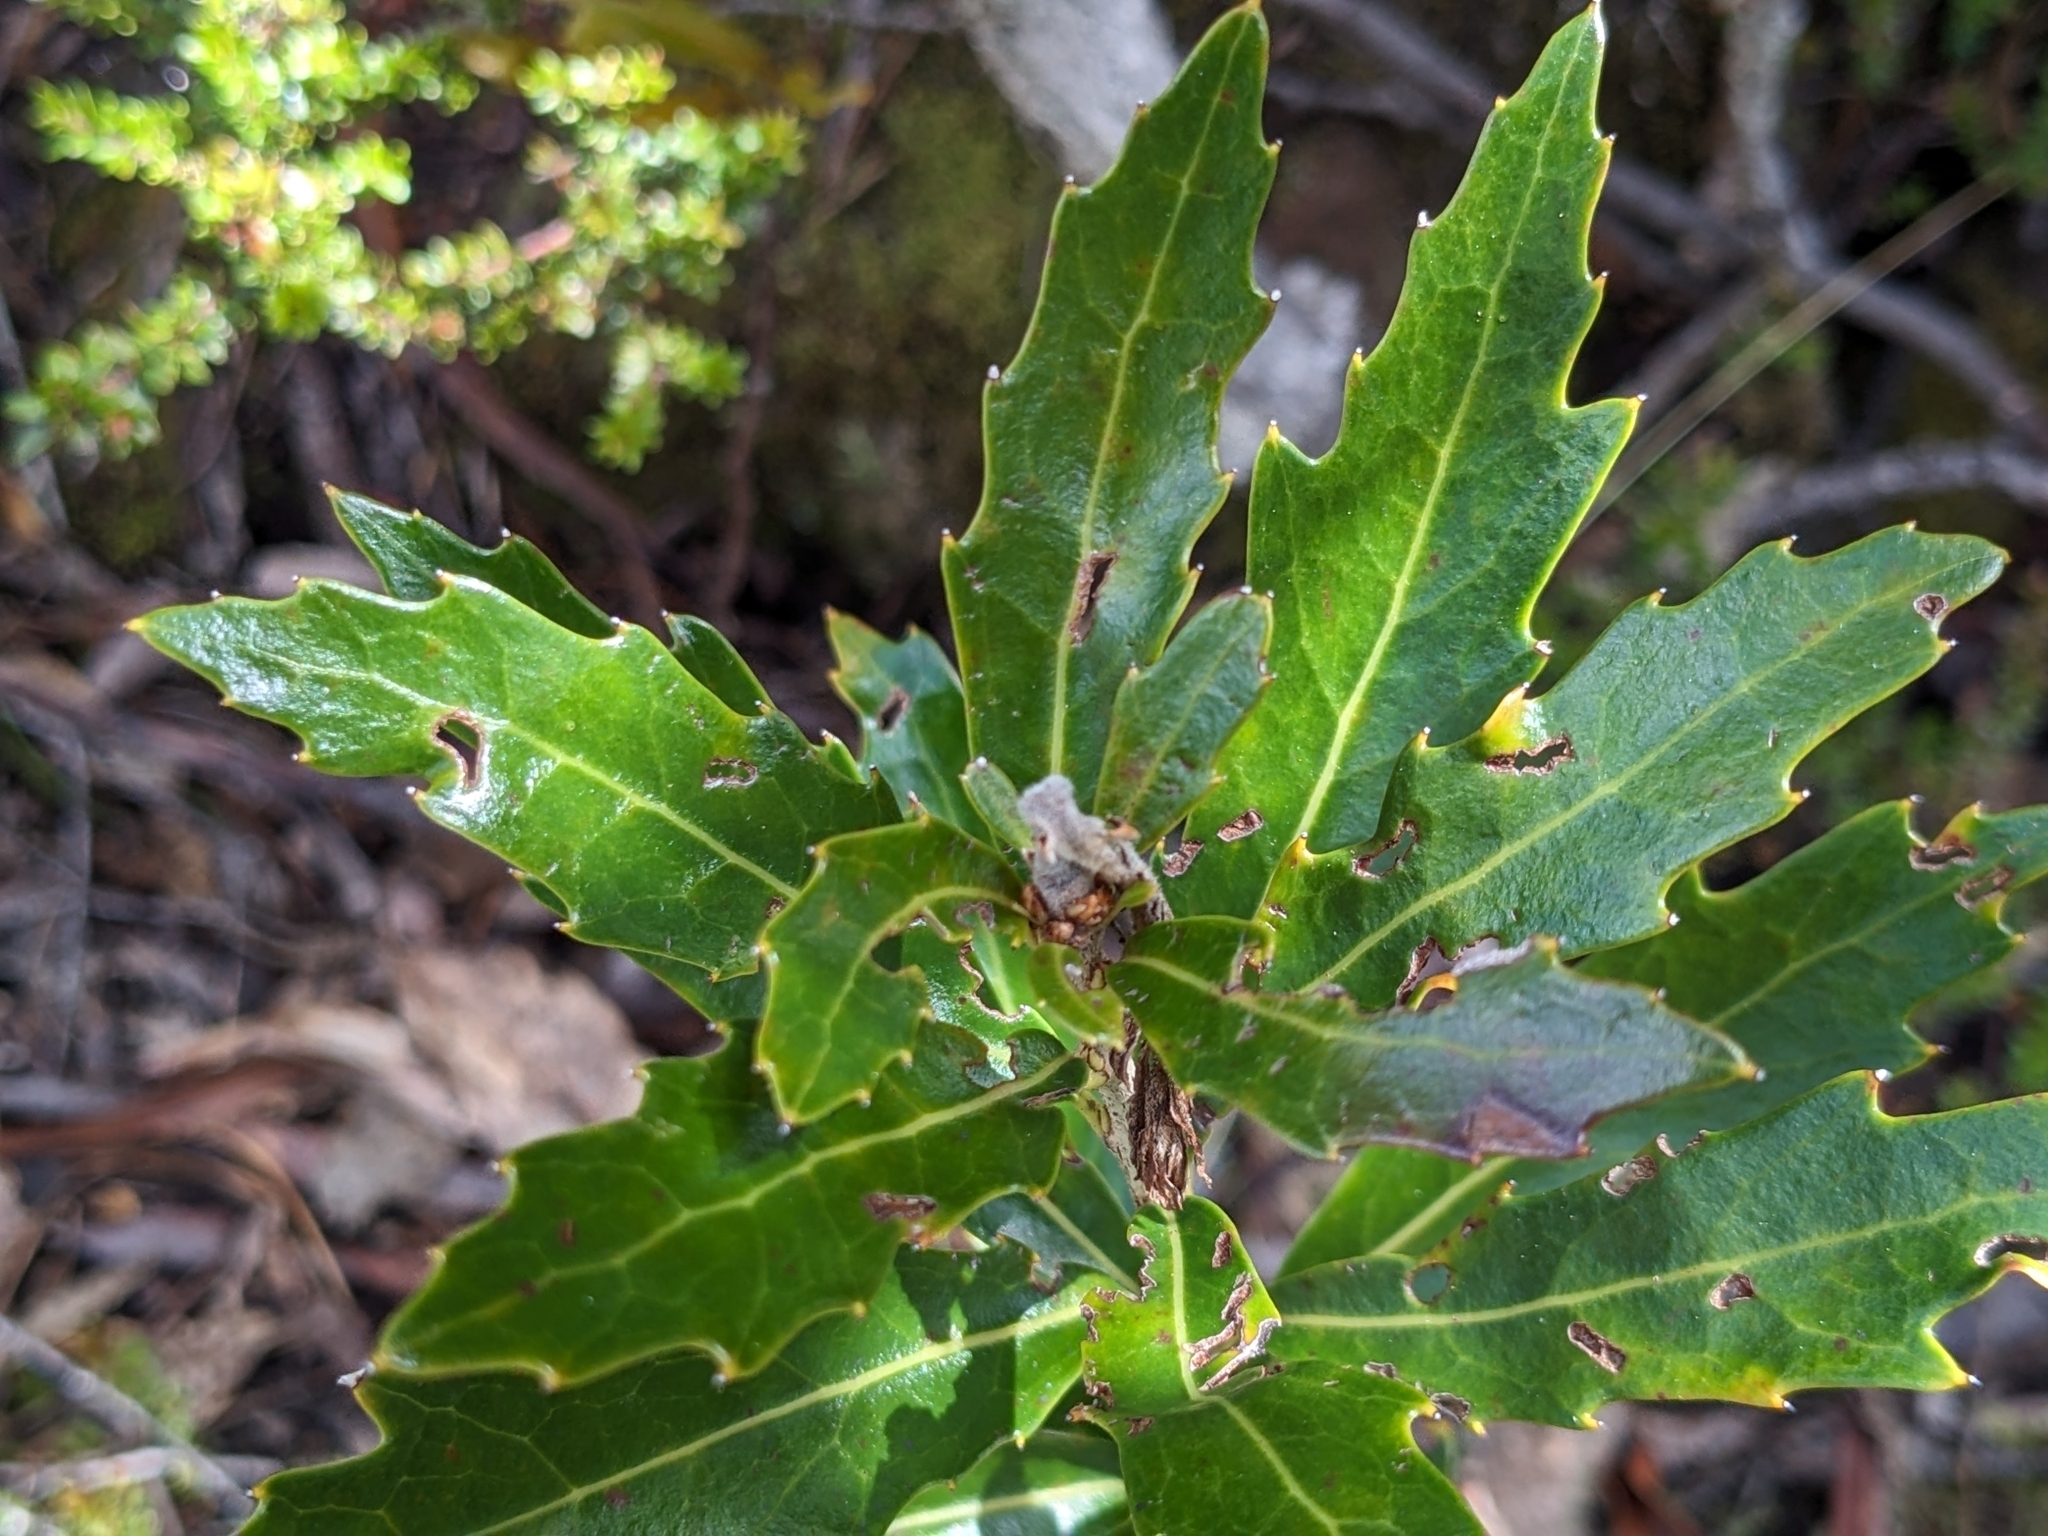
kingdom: Plantae
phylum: Tracheophyta
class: Magnoliopsida
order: Proteales
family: Proteaceae
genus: Orites
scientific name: Orites diversifolius
